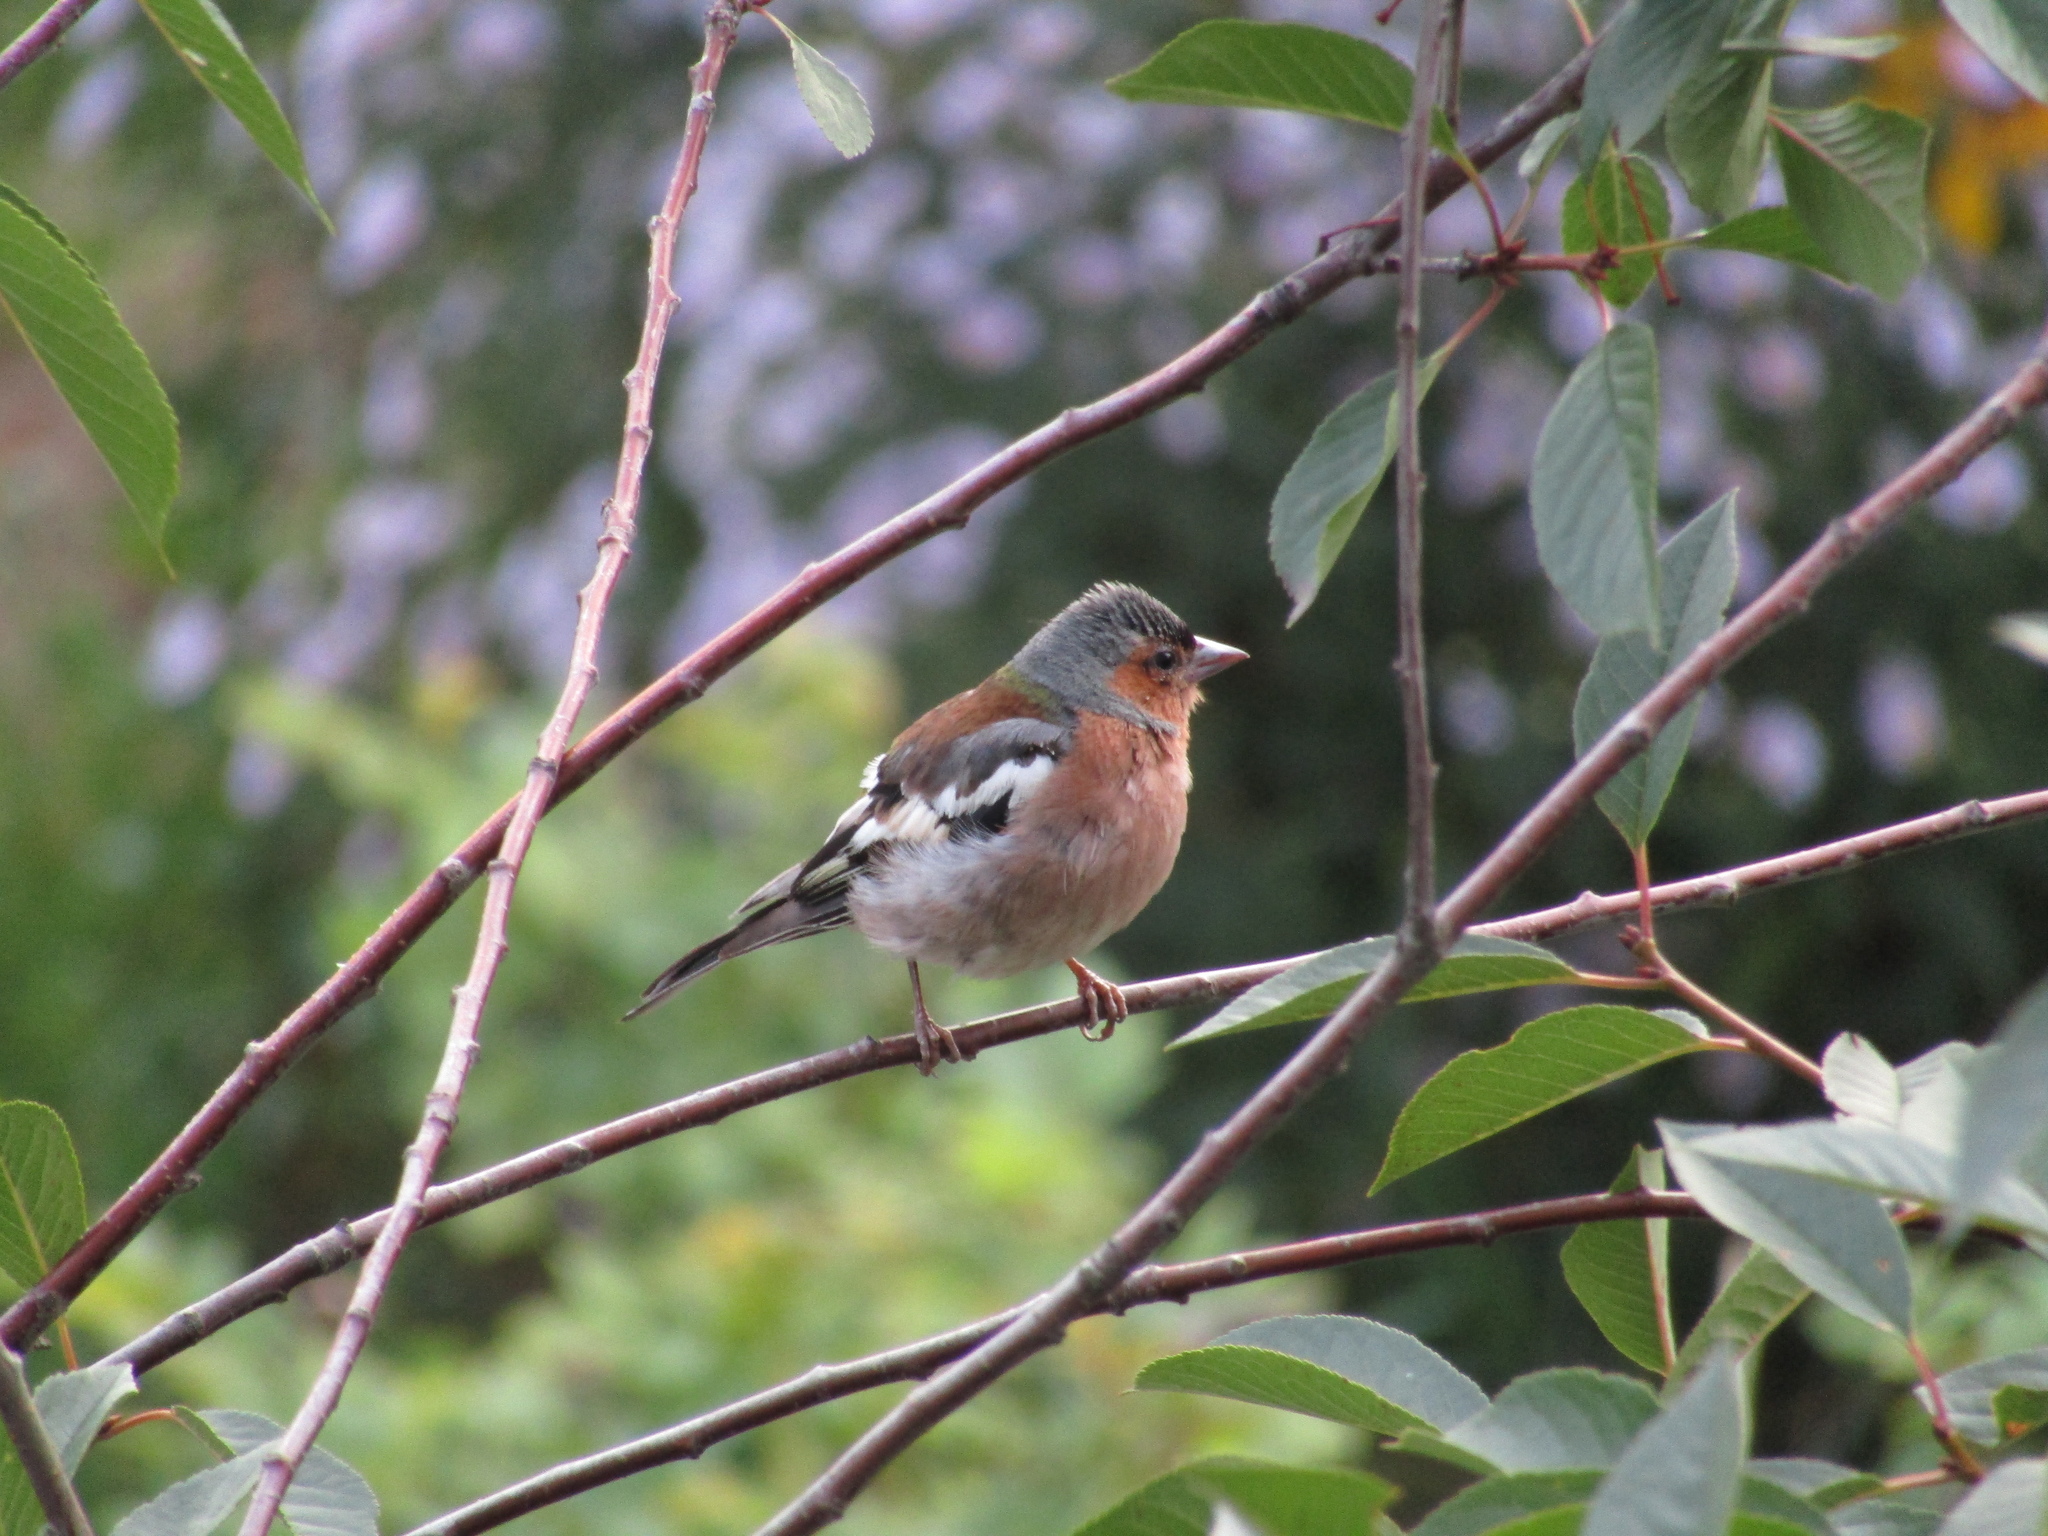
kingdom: Animalia
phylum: Chordata
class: Aves
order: Passeriformes
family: Fringillidae
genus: Fringilla
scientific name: Fringilla coelebs
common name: Common chaffinch
